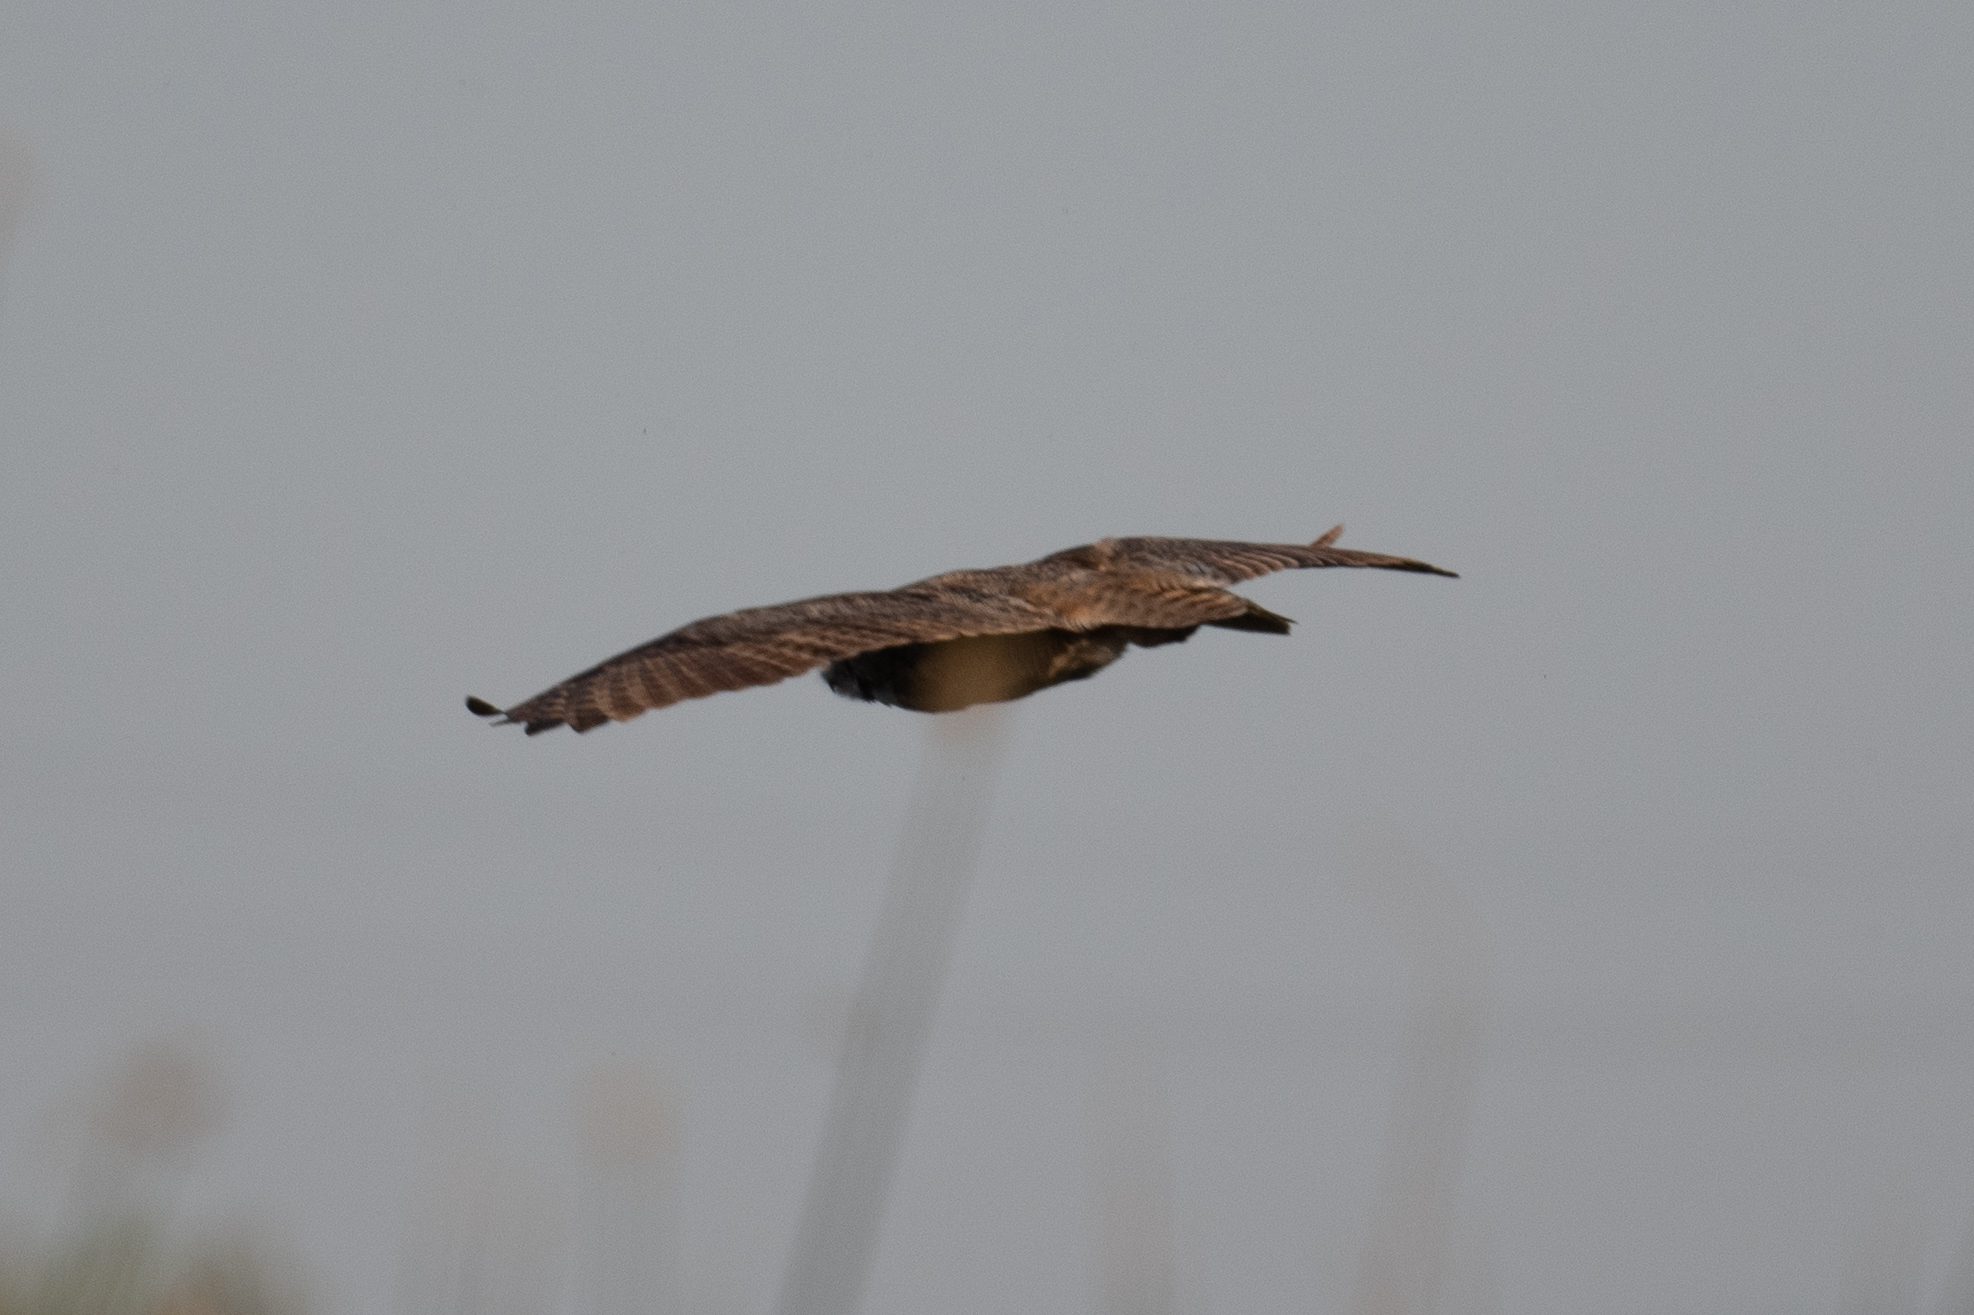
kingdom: Animalia
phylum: Chordata
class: Aves
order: Strigiformes
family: Strigidae
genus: Bubo
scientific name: Bubo virginianus
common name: Great horned owl
